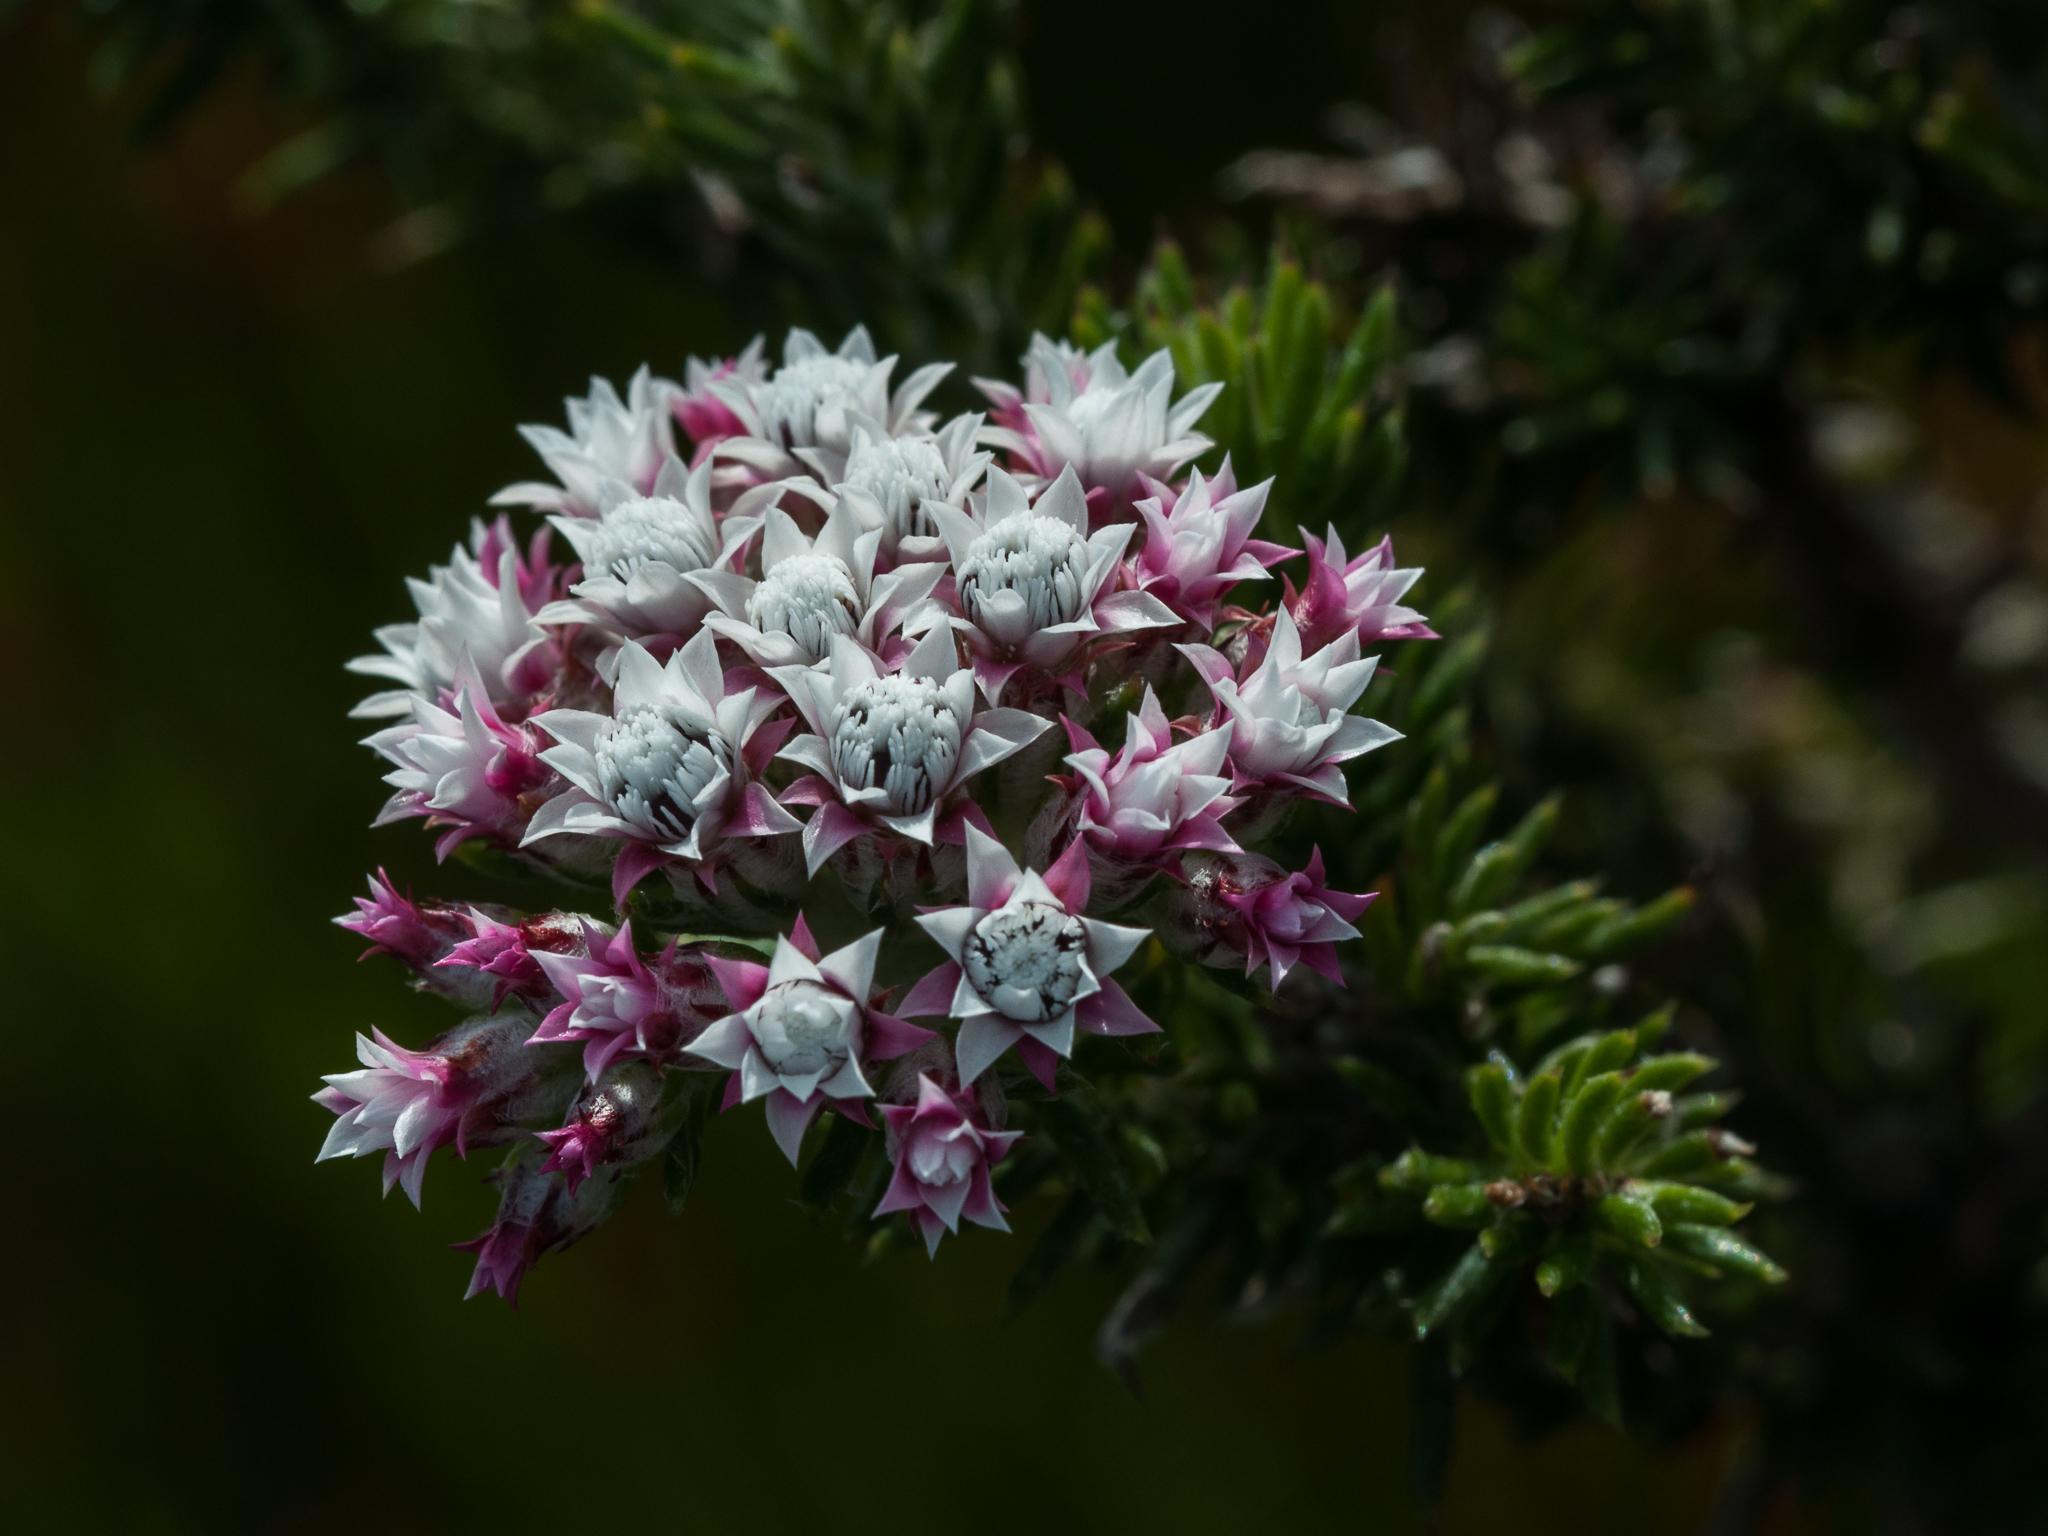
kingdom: Plantae
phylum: Tracheophyta
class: Magnoliopsida
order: Asterales
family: Asteraceae
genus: Metalasia
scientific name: Metalasia lichtensteinii
